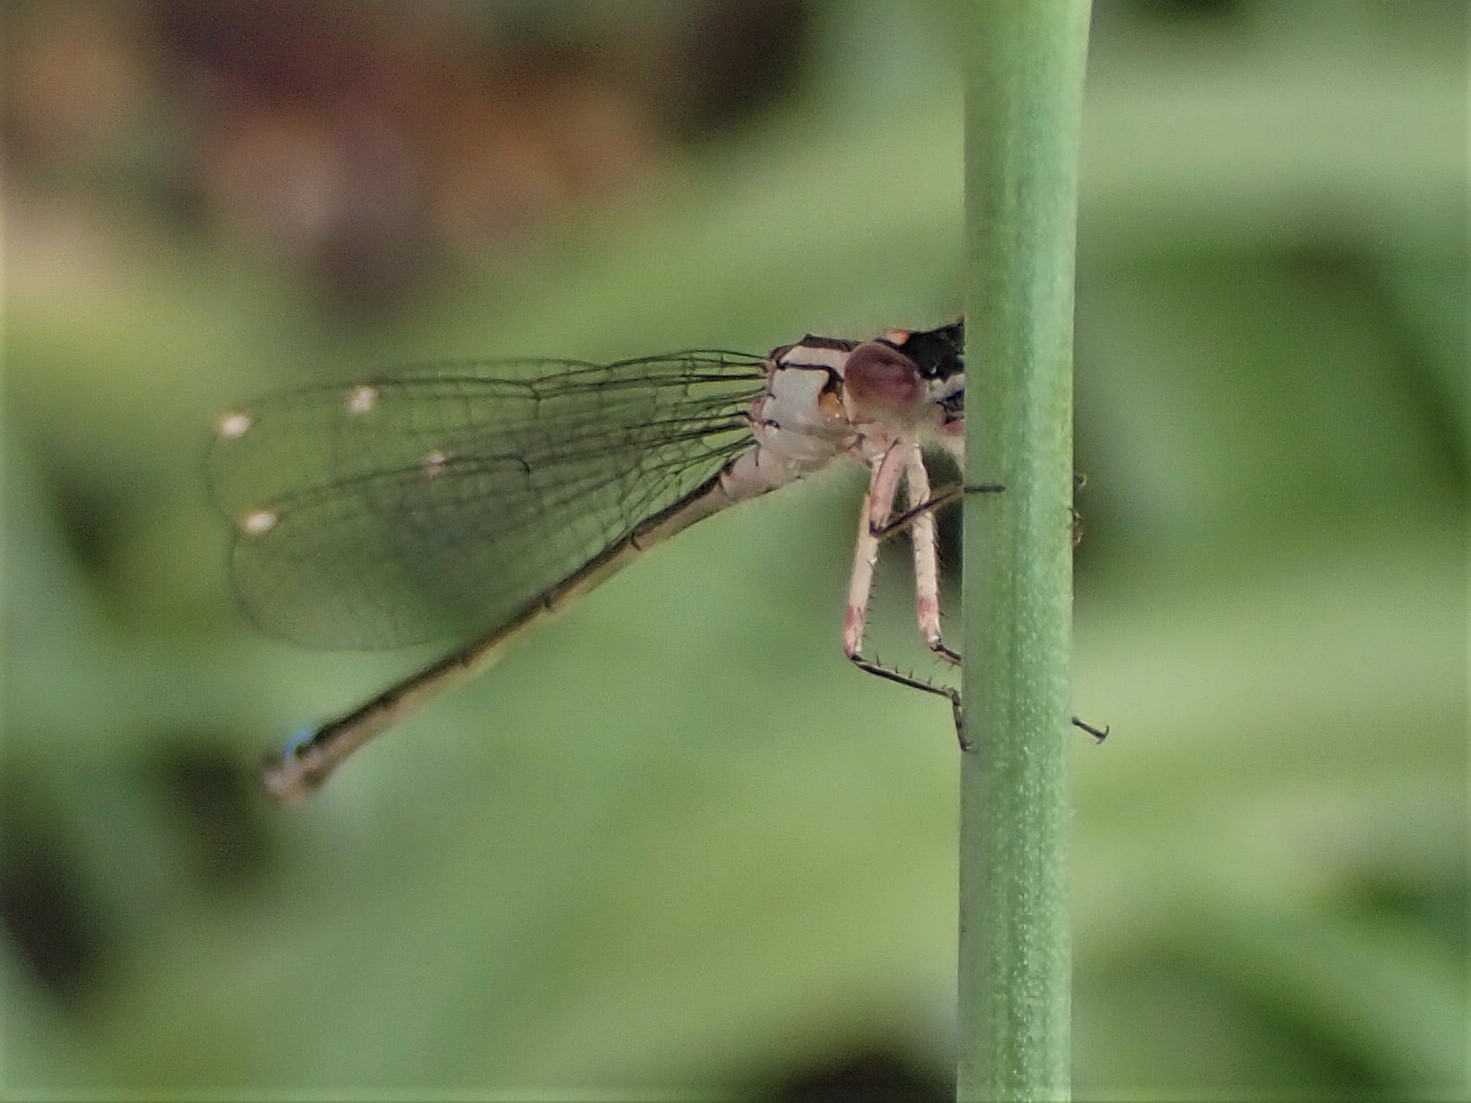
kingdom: Animalia
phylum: Arthropoda
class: Insecta
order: Odonata
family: Coenagrionidae
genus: Ischnura
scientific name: Ischnura cervula
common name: Pacific forktail
